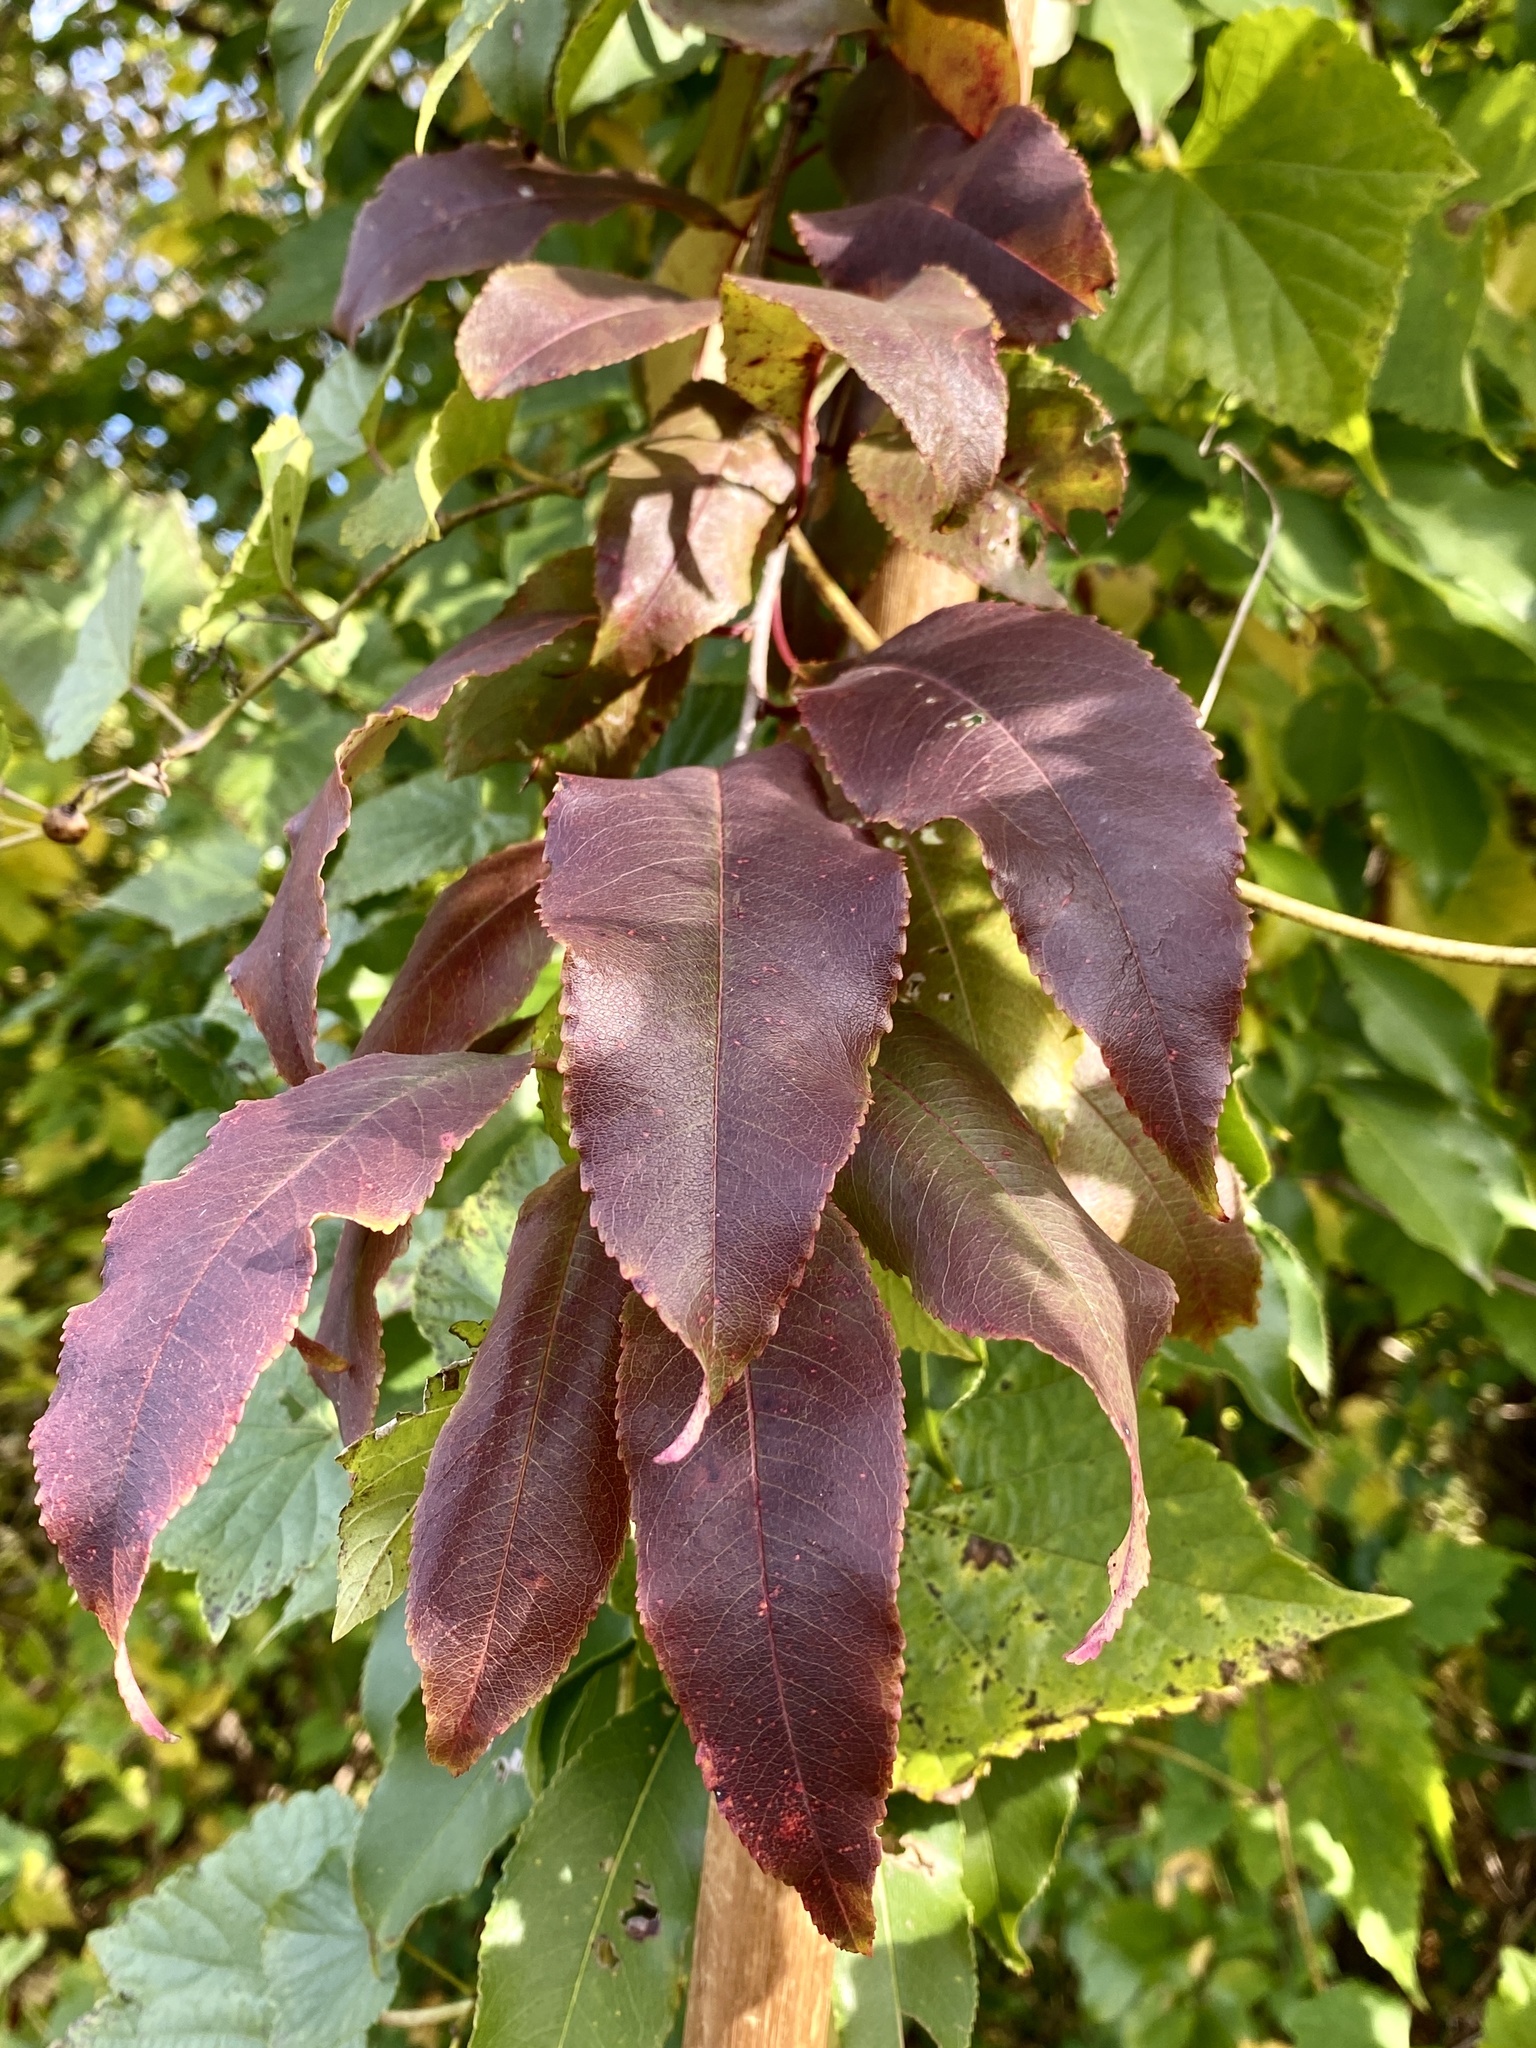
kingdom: Plantae
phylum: Tracheophyta
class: Magnoliopsida
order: Rosales
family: Rosaceae
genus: Prunus
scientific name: Prunus serotina
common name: Black cherry
